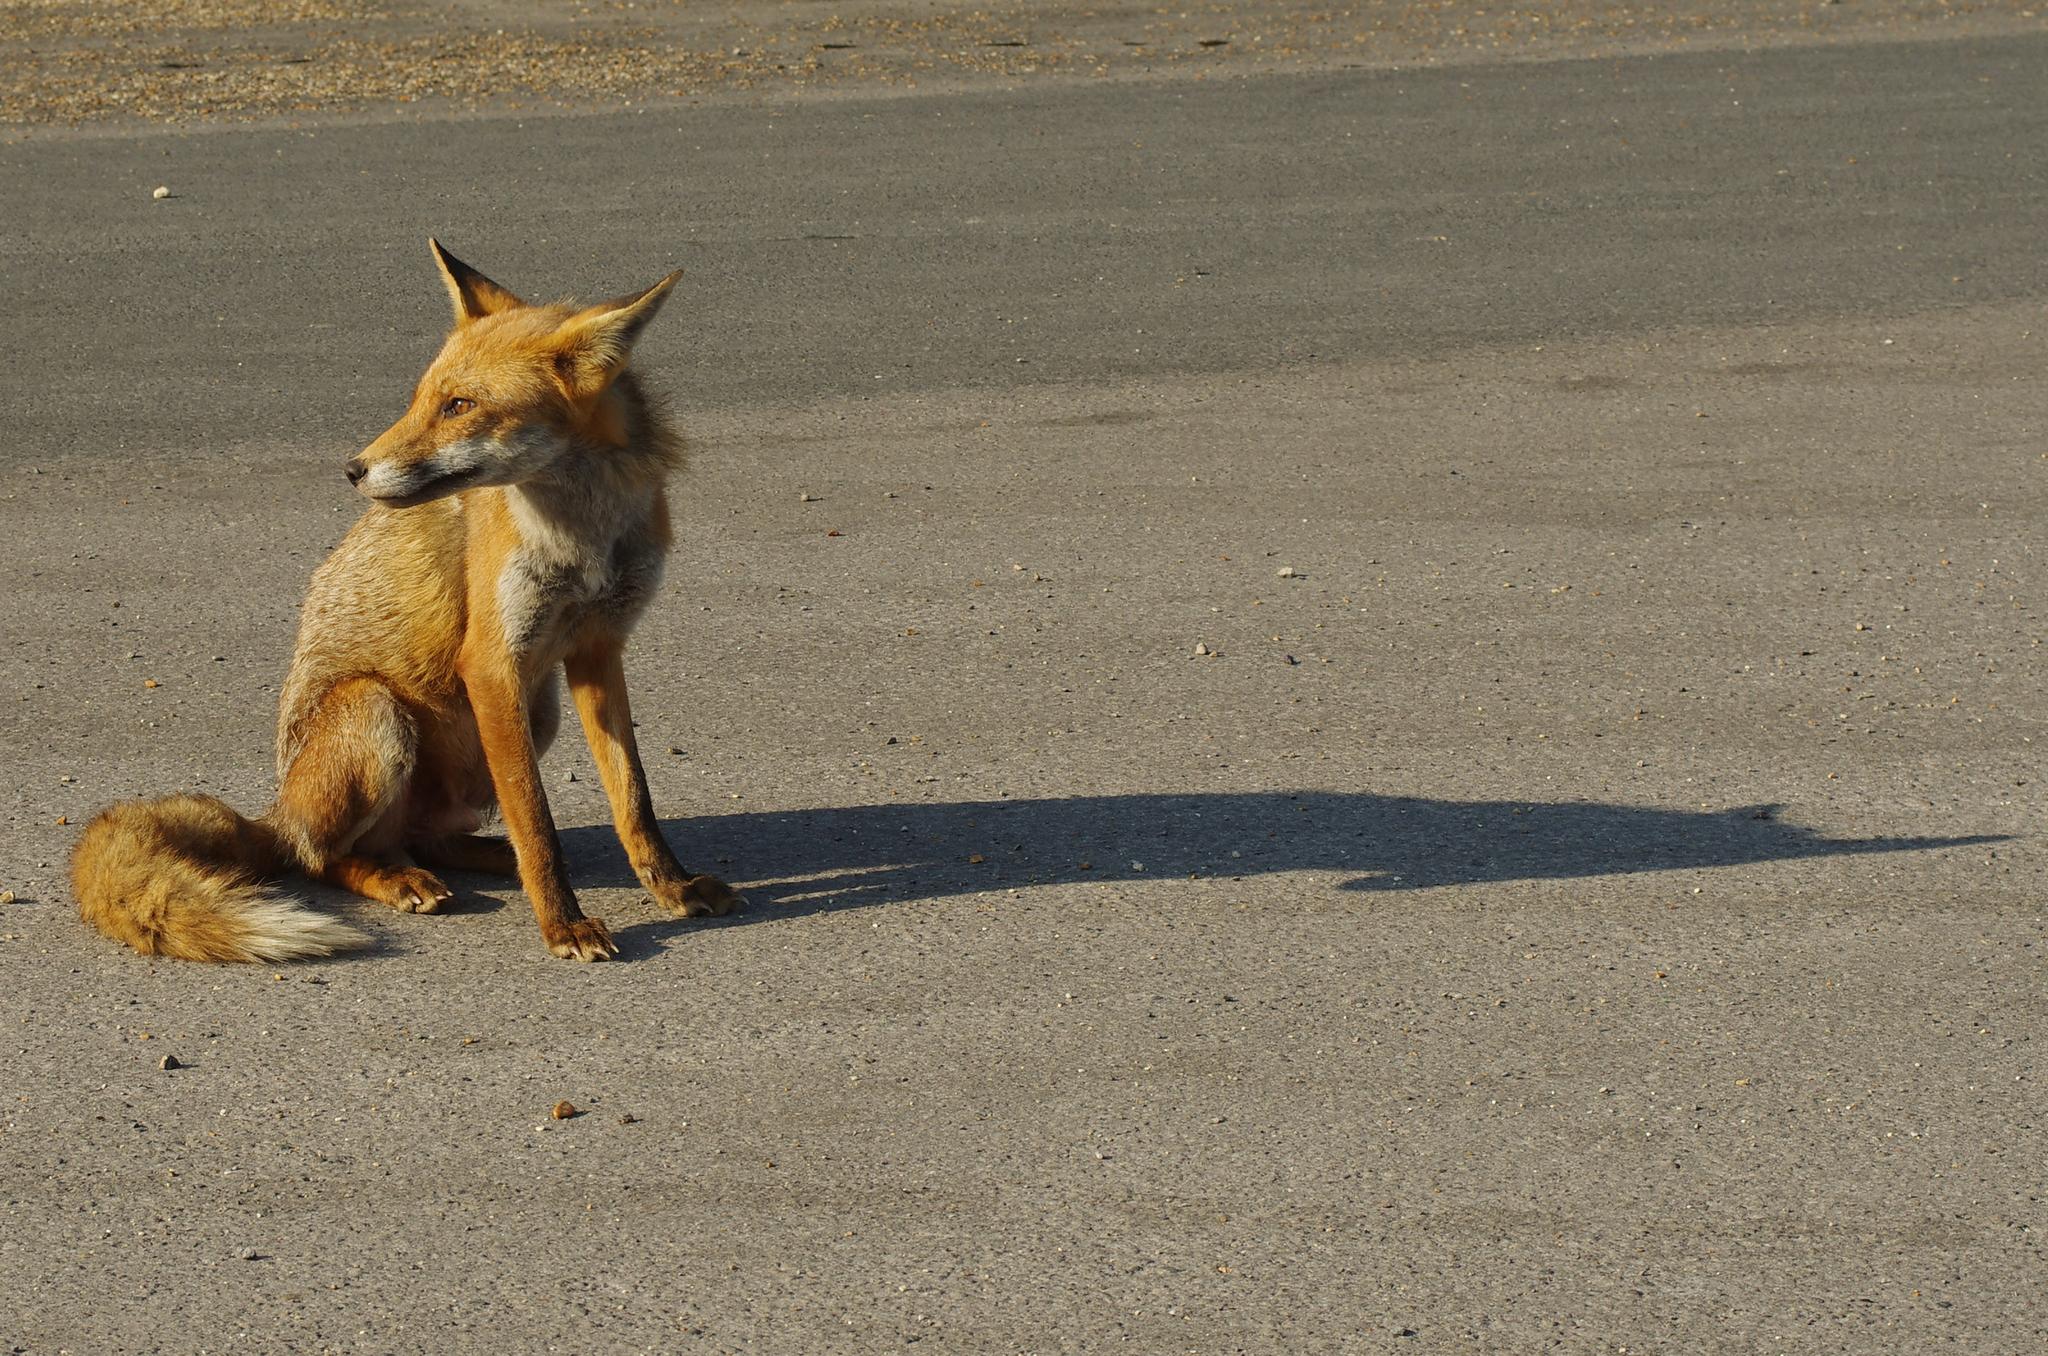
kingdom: Animalia
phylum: Chordata
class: Mammalia
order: Carnivora
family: Canidae
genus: Vulpes
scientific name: Vulpes vulpes
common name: Red fox
